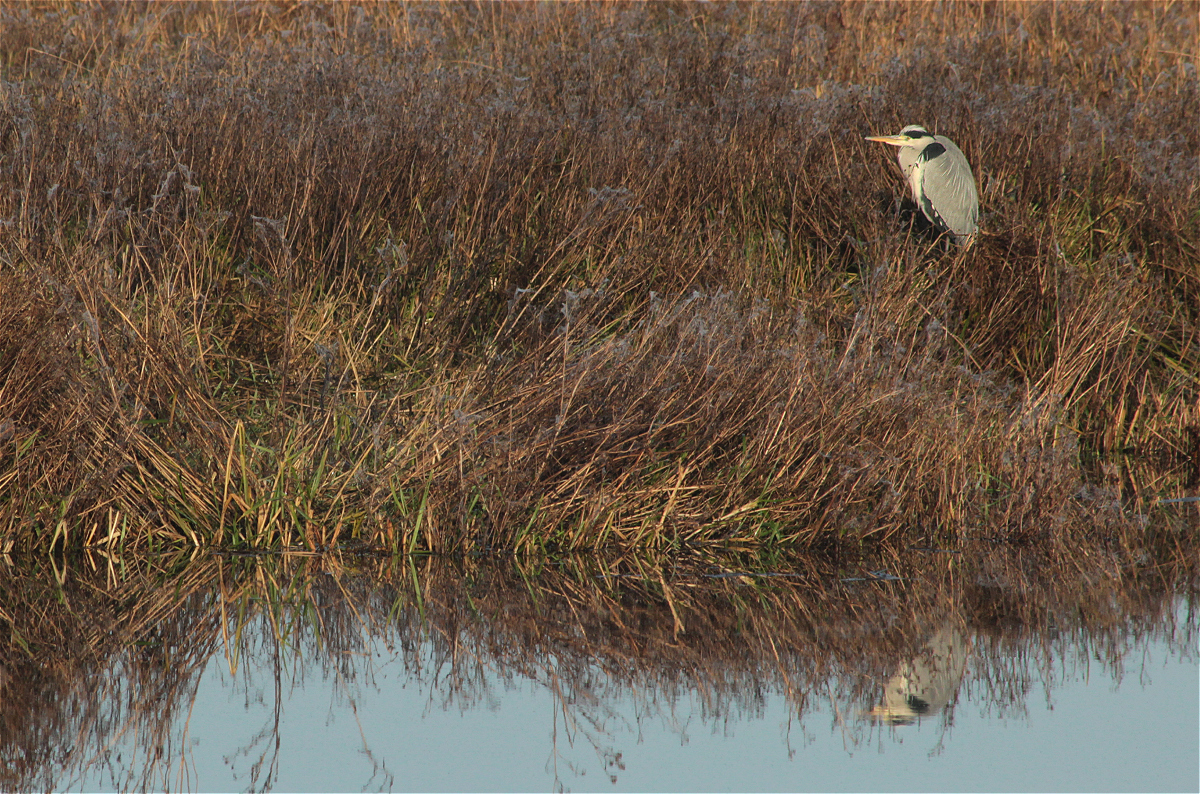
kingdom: Animalia
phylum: Chordata
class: Aves
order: Pelecaniformes
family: Ardeidae
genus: Ardea
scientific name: Ardea cinerea
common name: Grey heron
